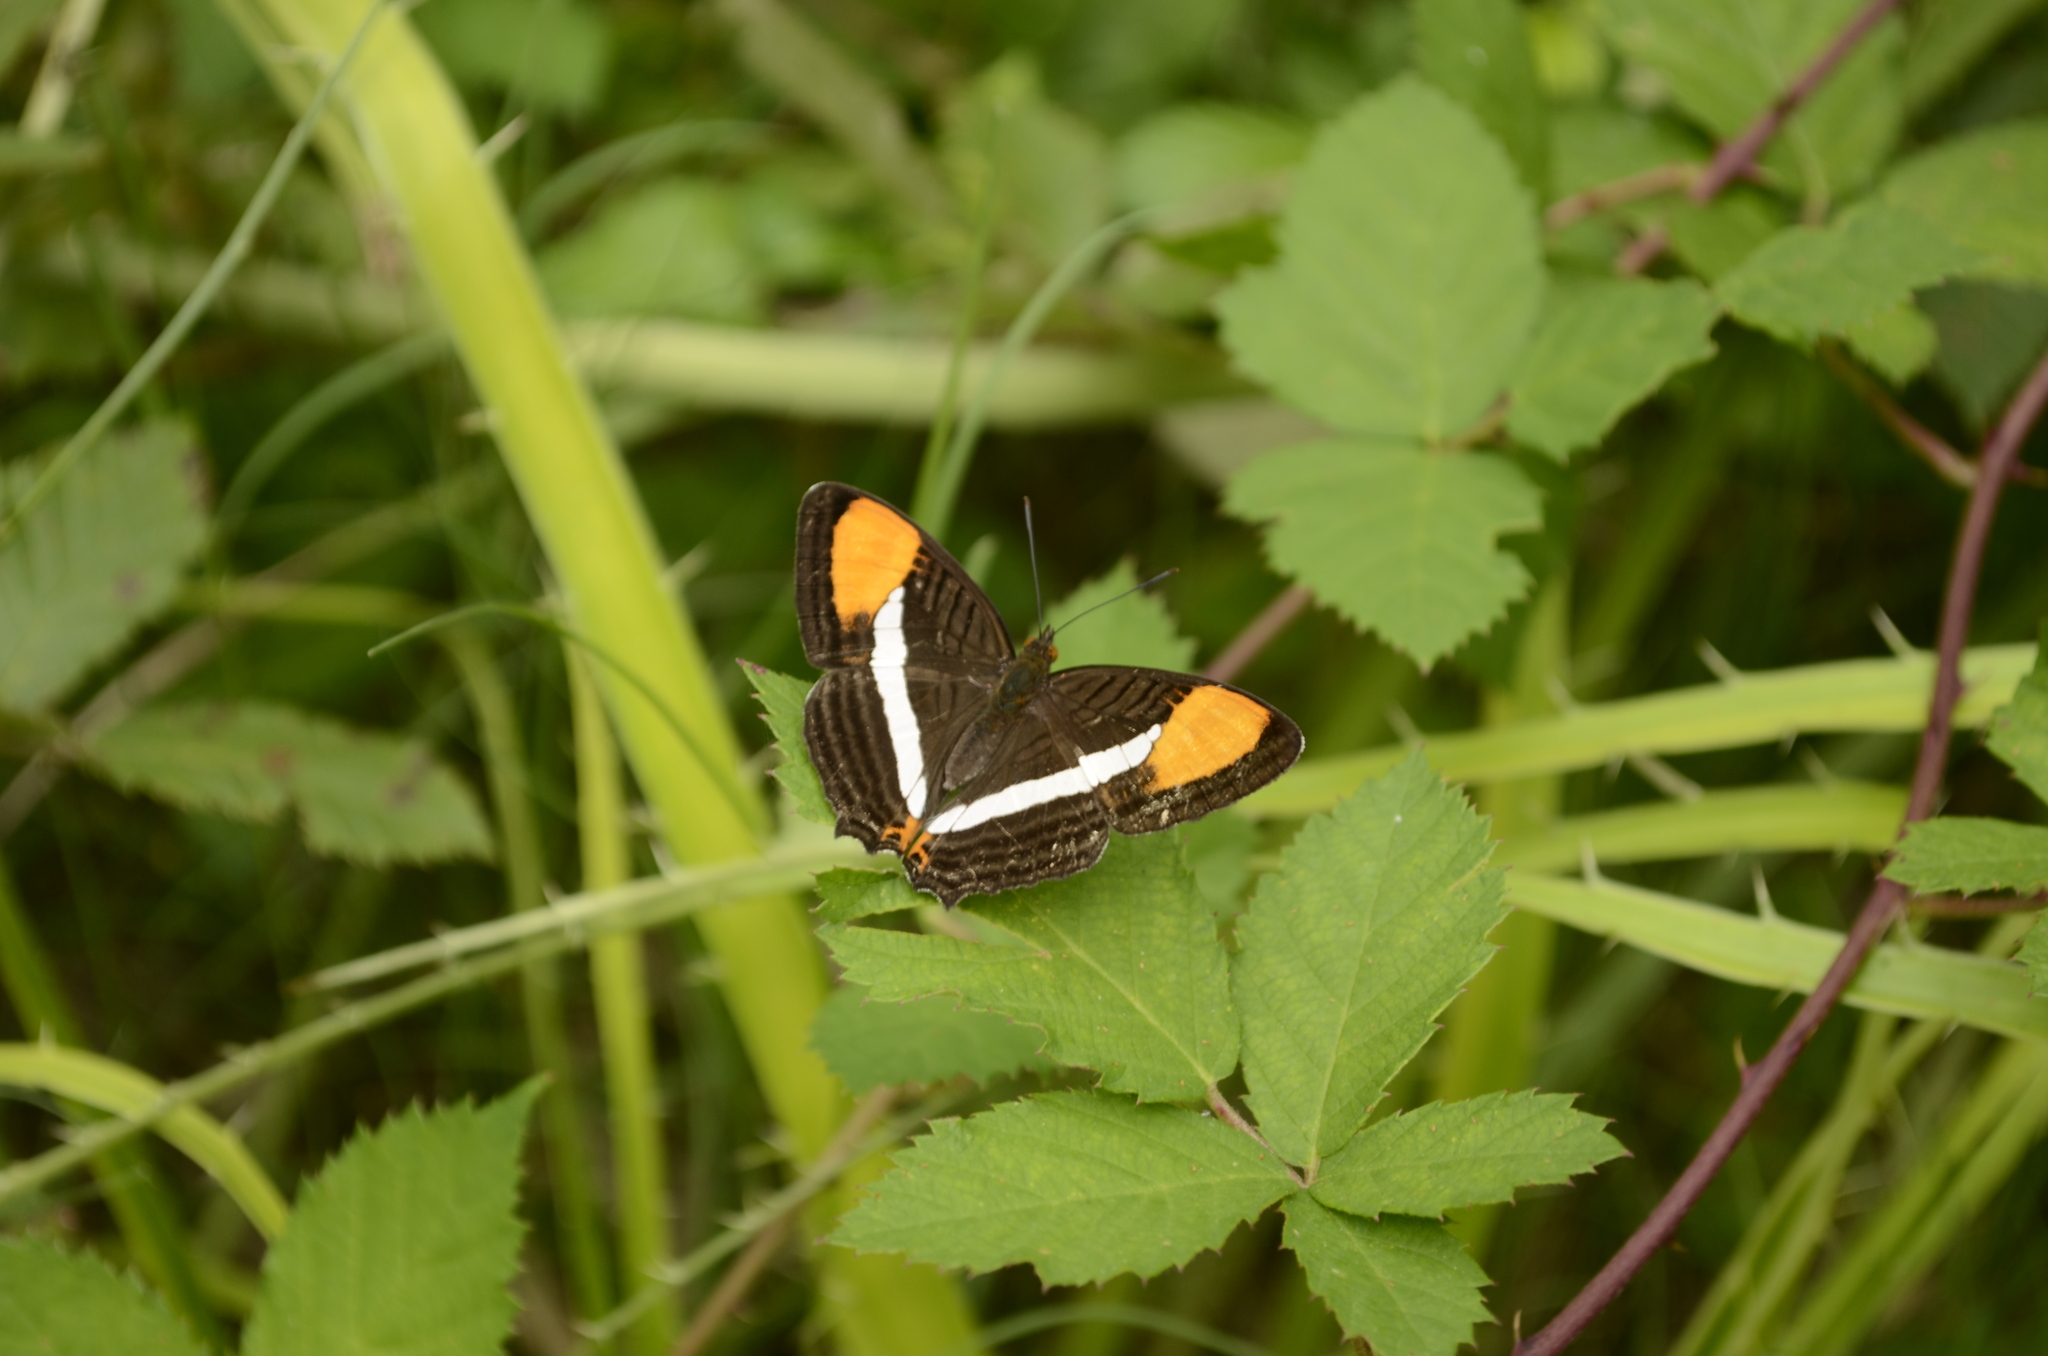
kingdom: Animalia
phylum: Arthropoda
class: Insecta
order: Lepidoptera
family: Nymphalidae
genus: Limenitis
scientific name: Limenitis syma
